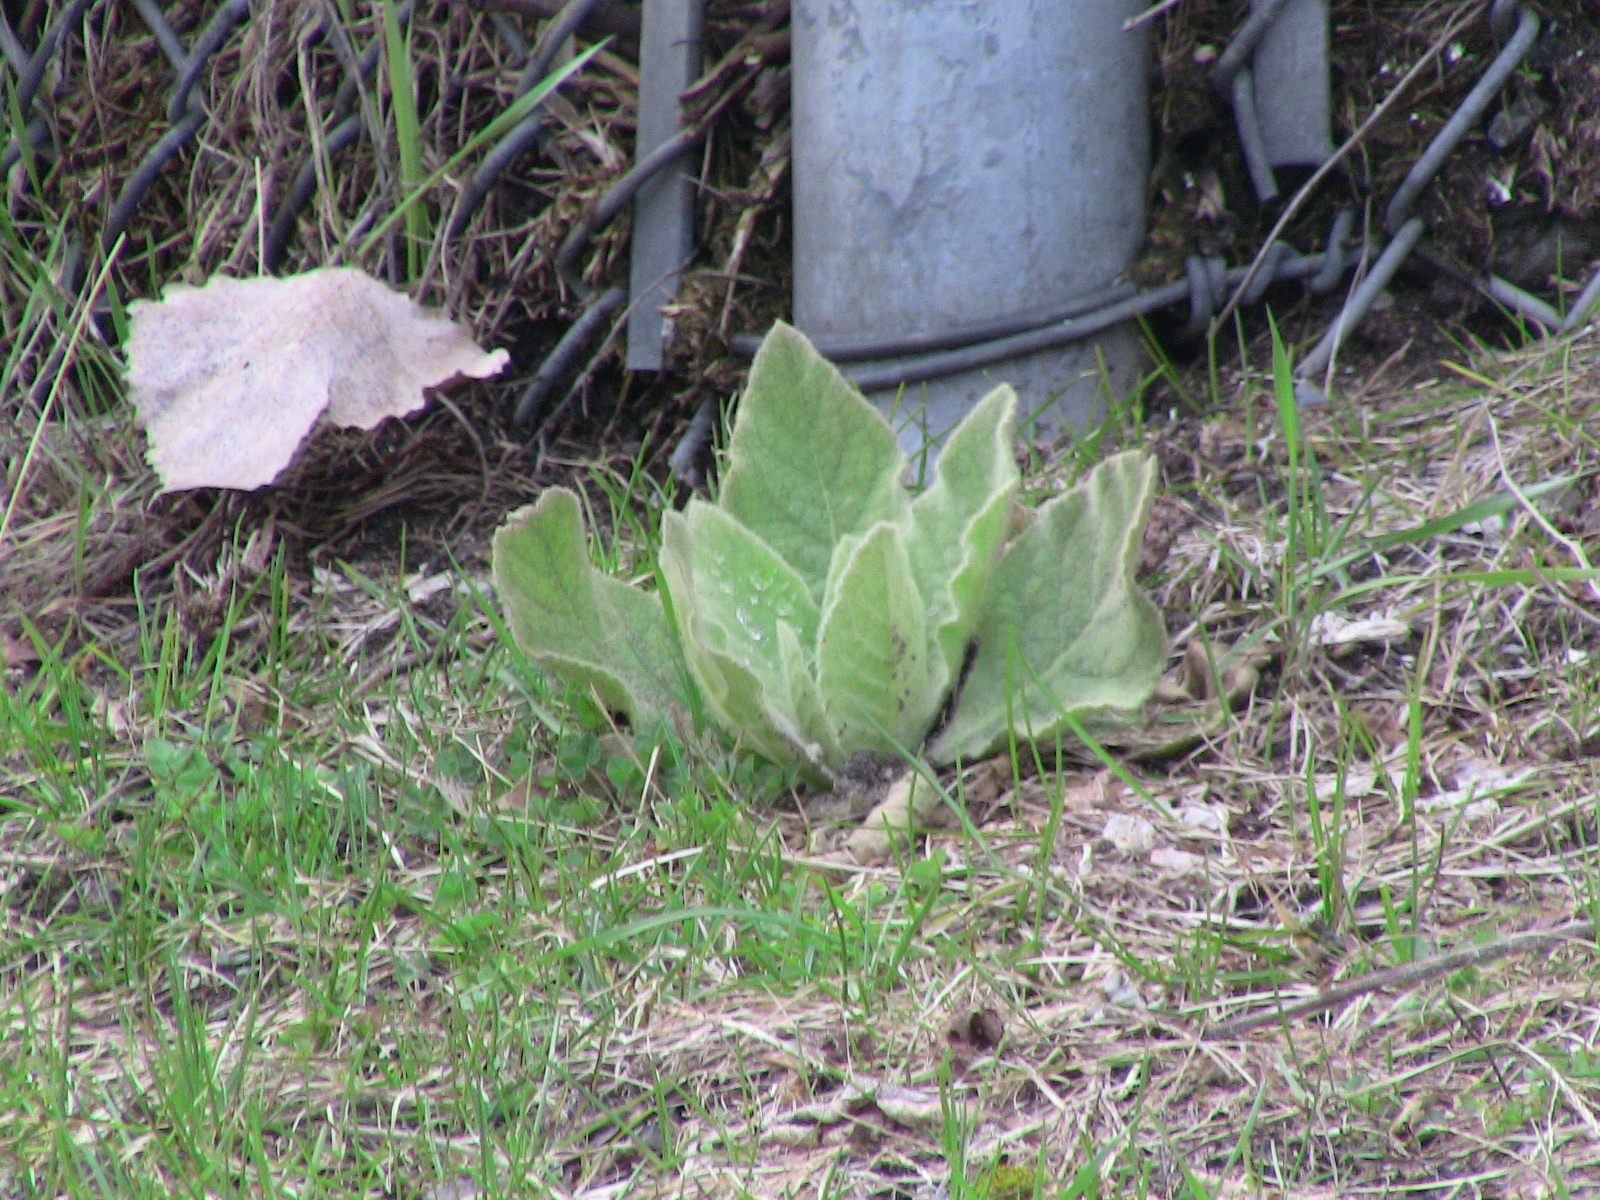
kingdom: Plantae
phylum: Tracheophyta
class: Magnoliopsida
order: Lamiales
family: Scrophulariaceae
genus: Verbascum
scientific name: Verbascum thapsus
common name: Common mullein
